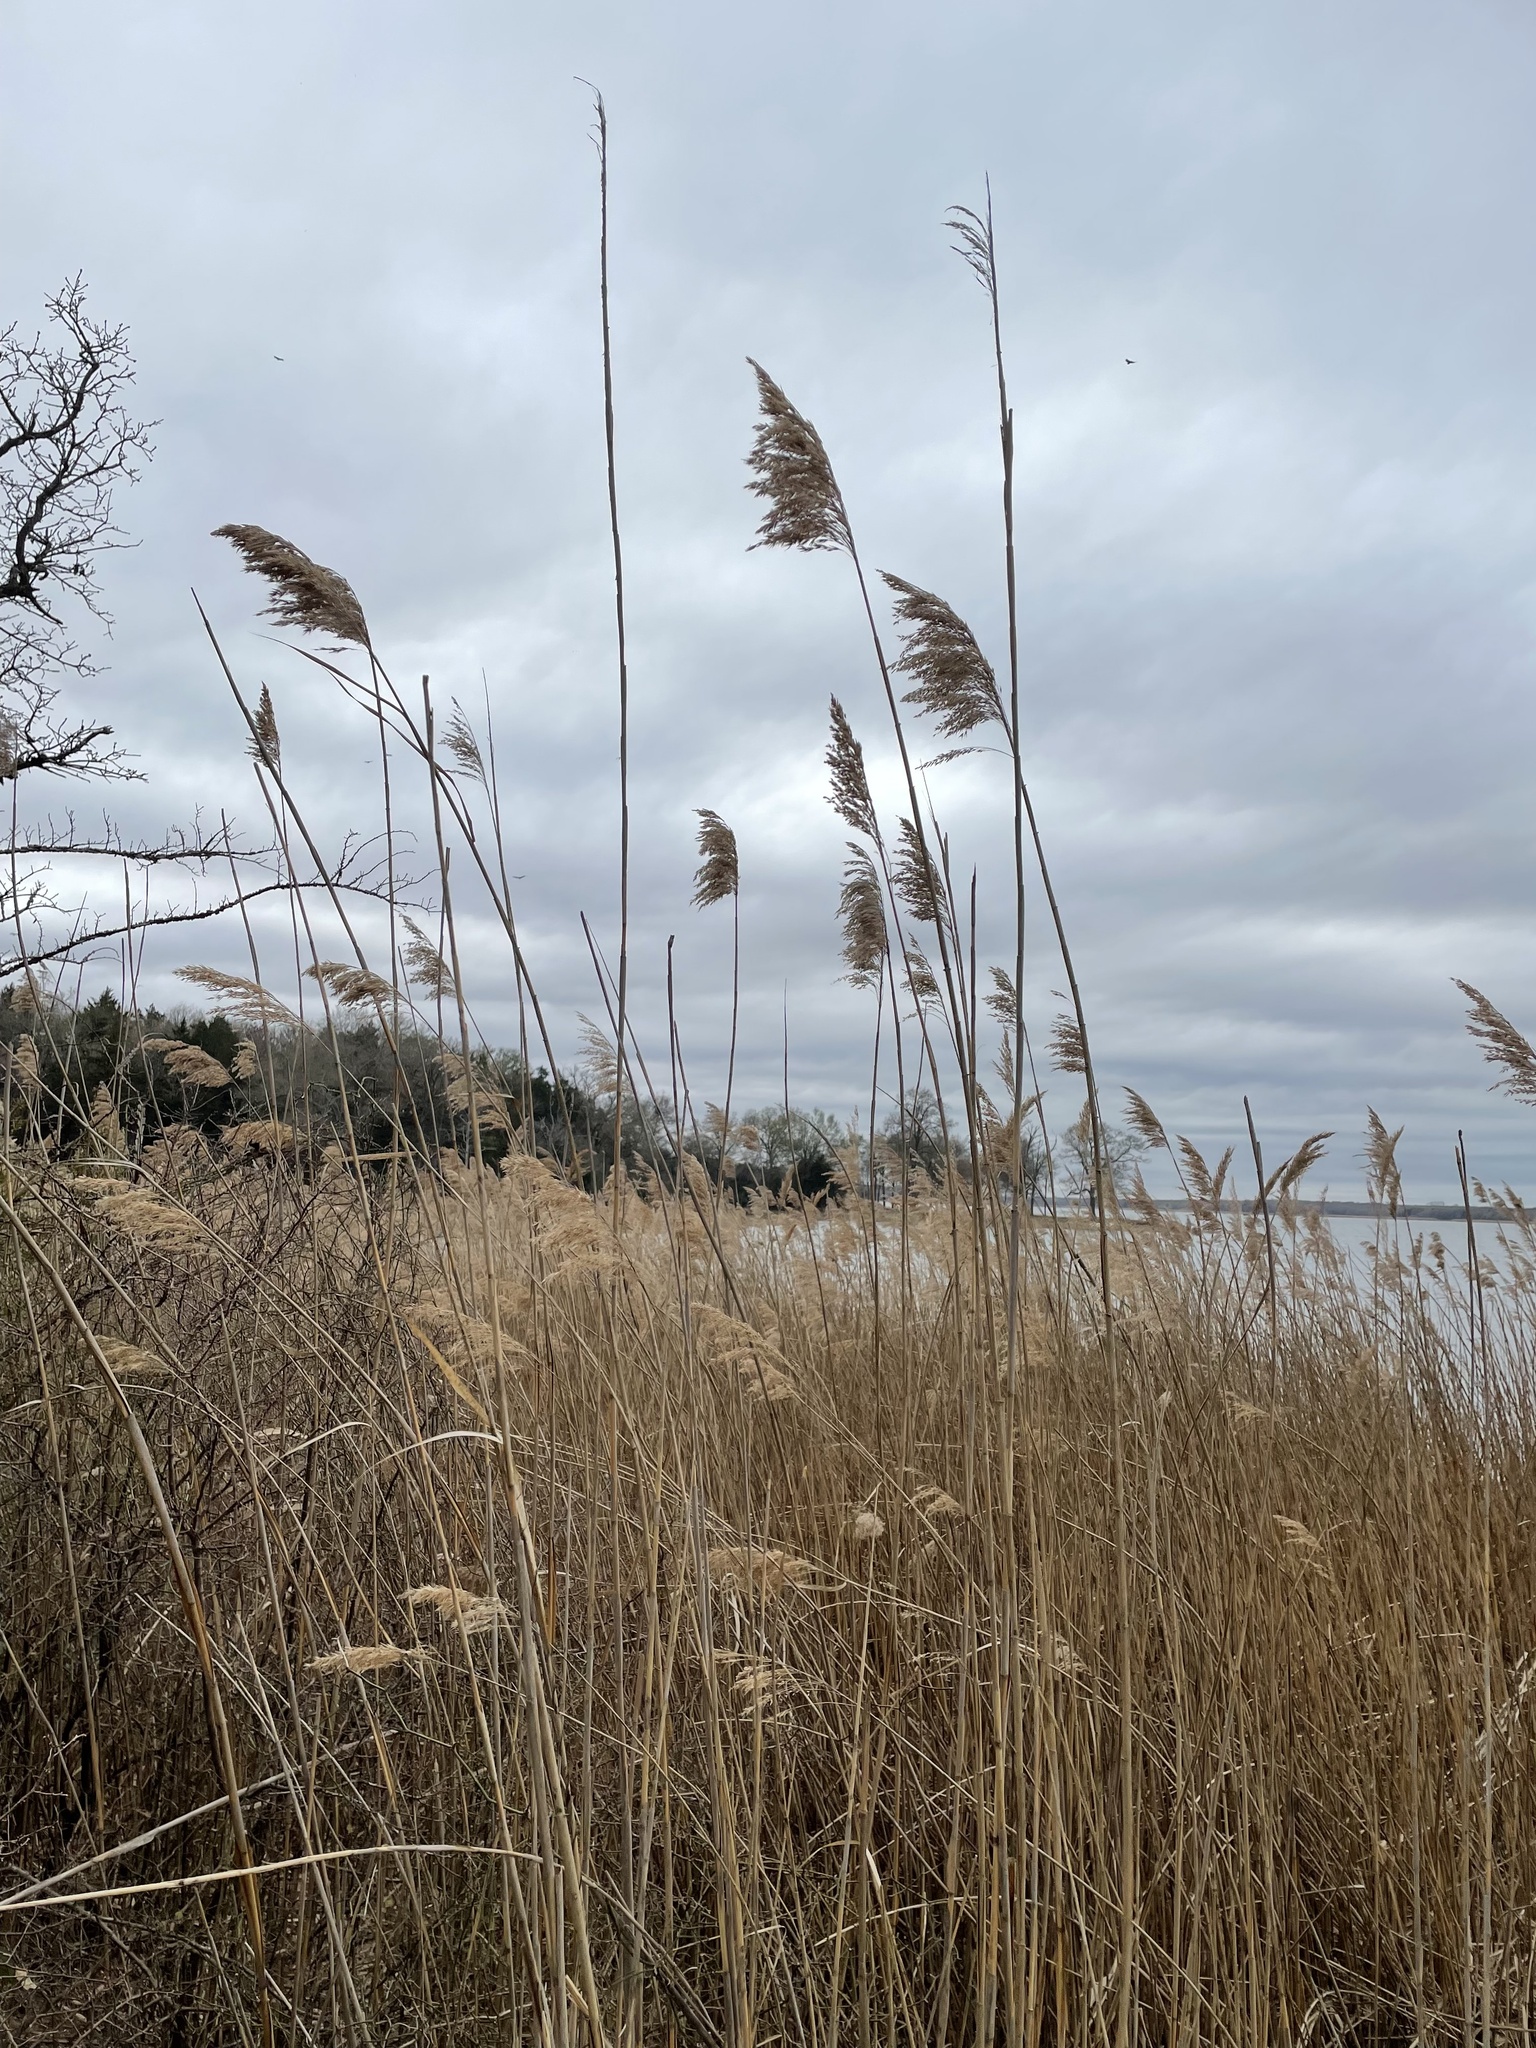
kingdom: Plantae
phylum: Tracheophyta
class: Liliopsida
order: Poales
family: Poaceae
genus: Phragmites
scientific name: Phragmites australis
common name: Common reed
